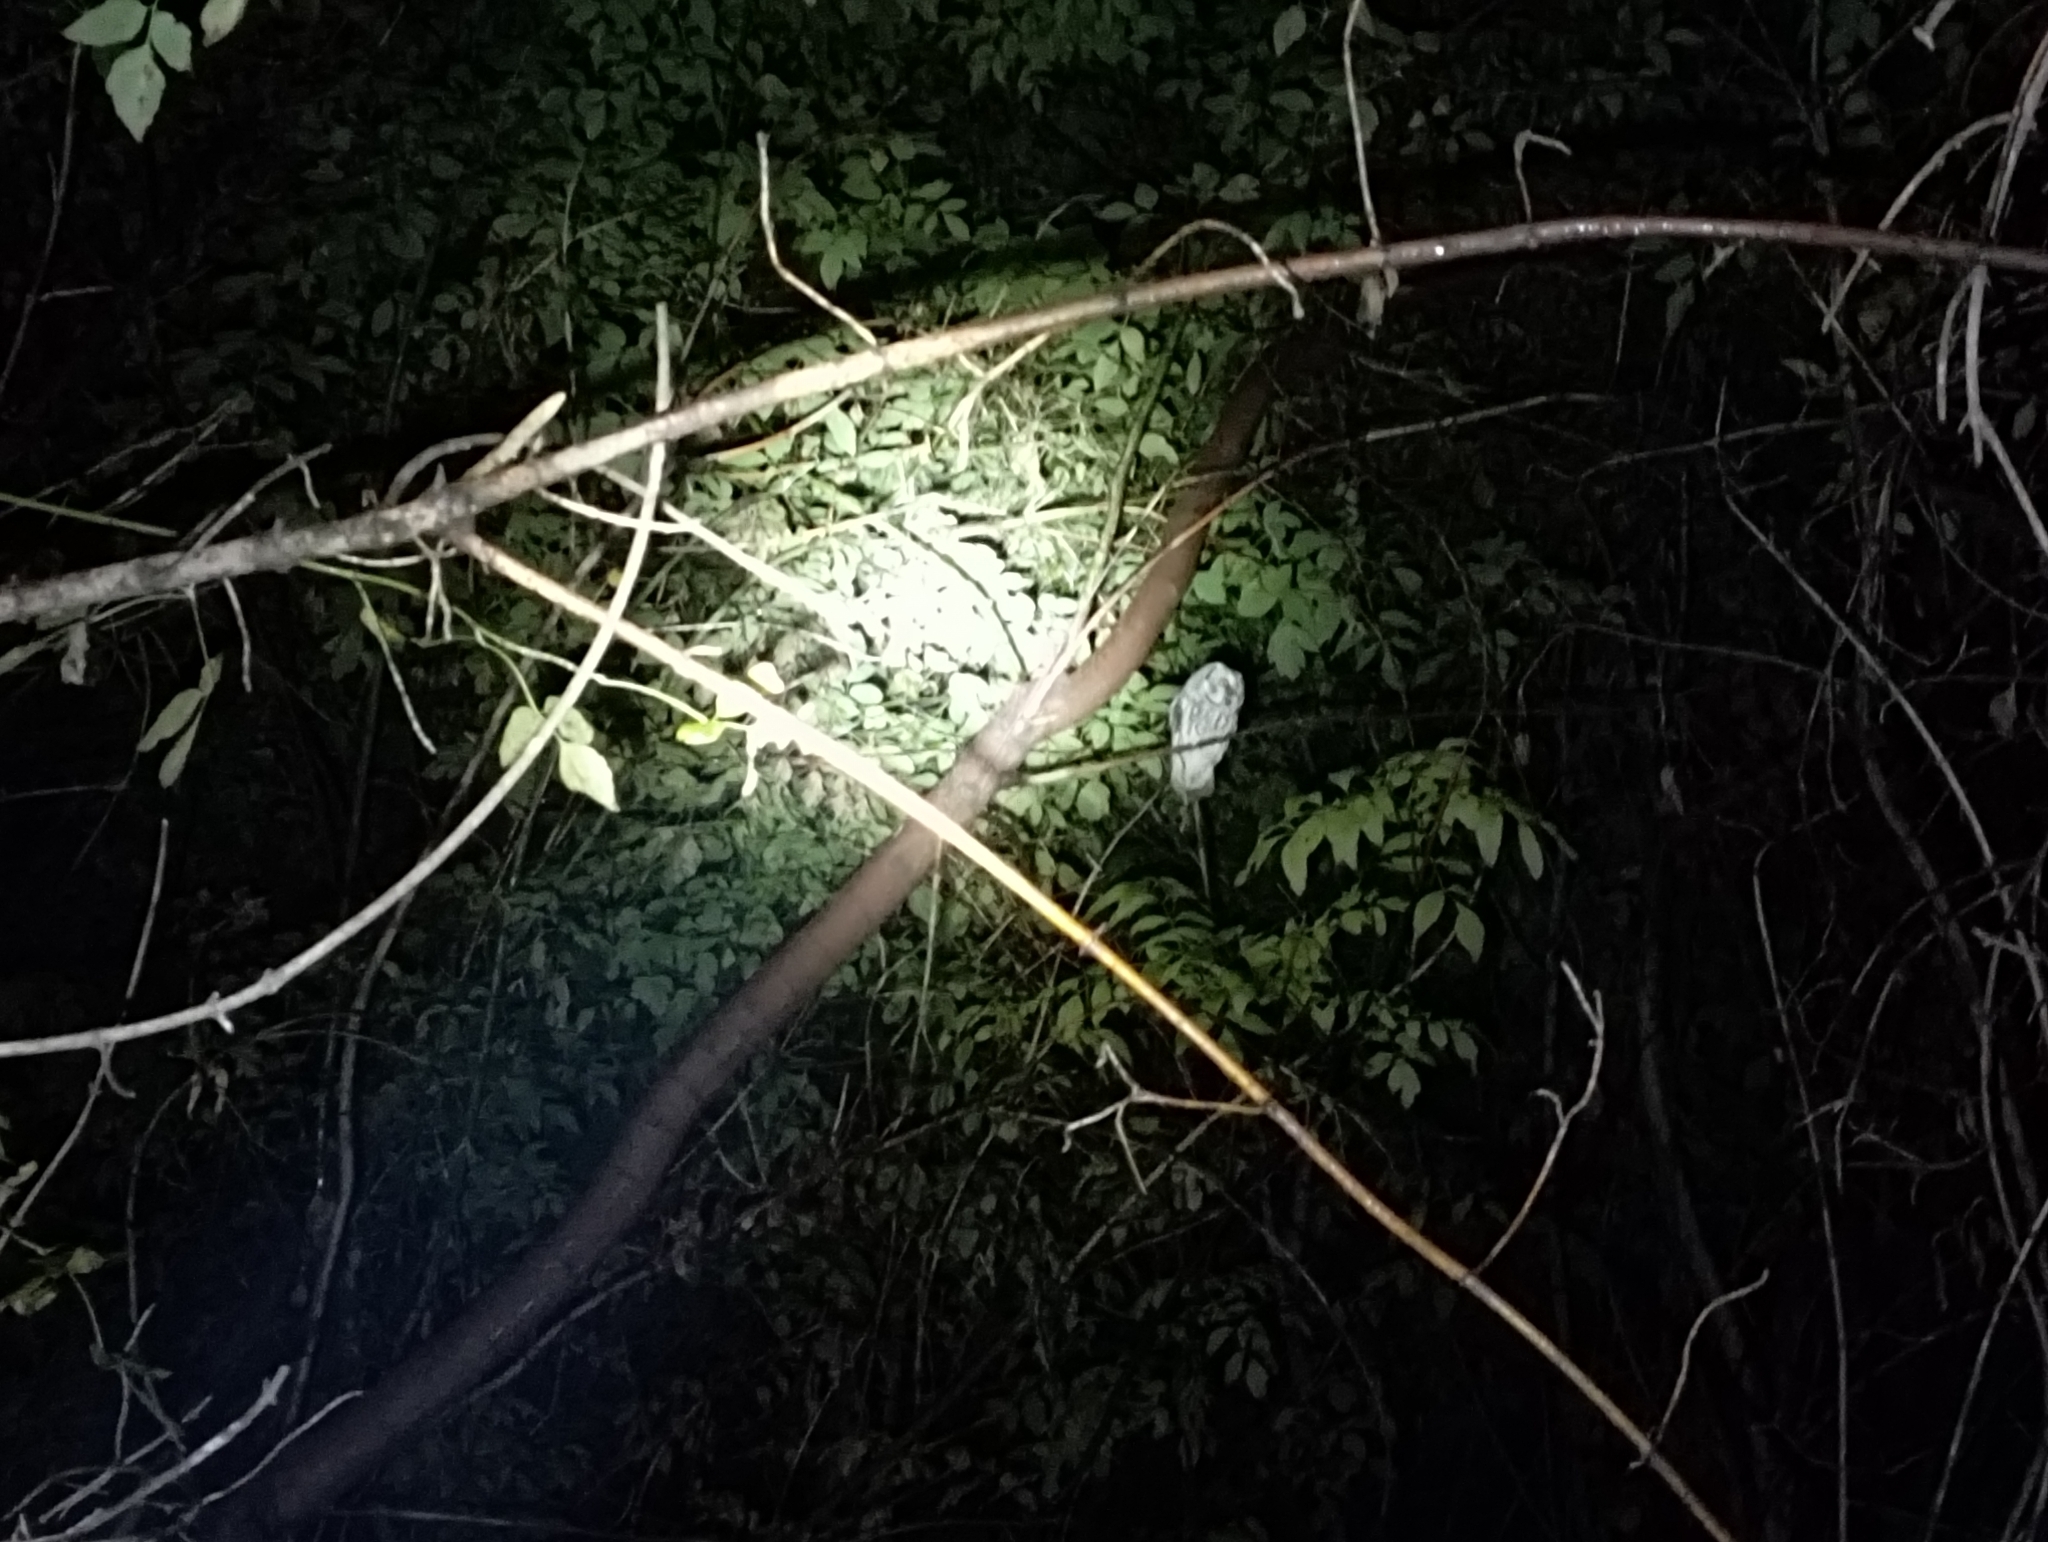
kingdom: Animalia
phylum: Chordata
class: Aves
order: Strigiformes
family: Strigidae
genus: Aegolius
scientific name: Aegolius funereus
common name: Boreal owl
